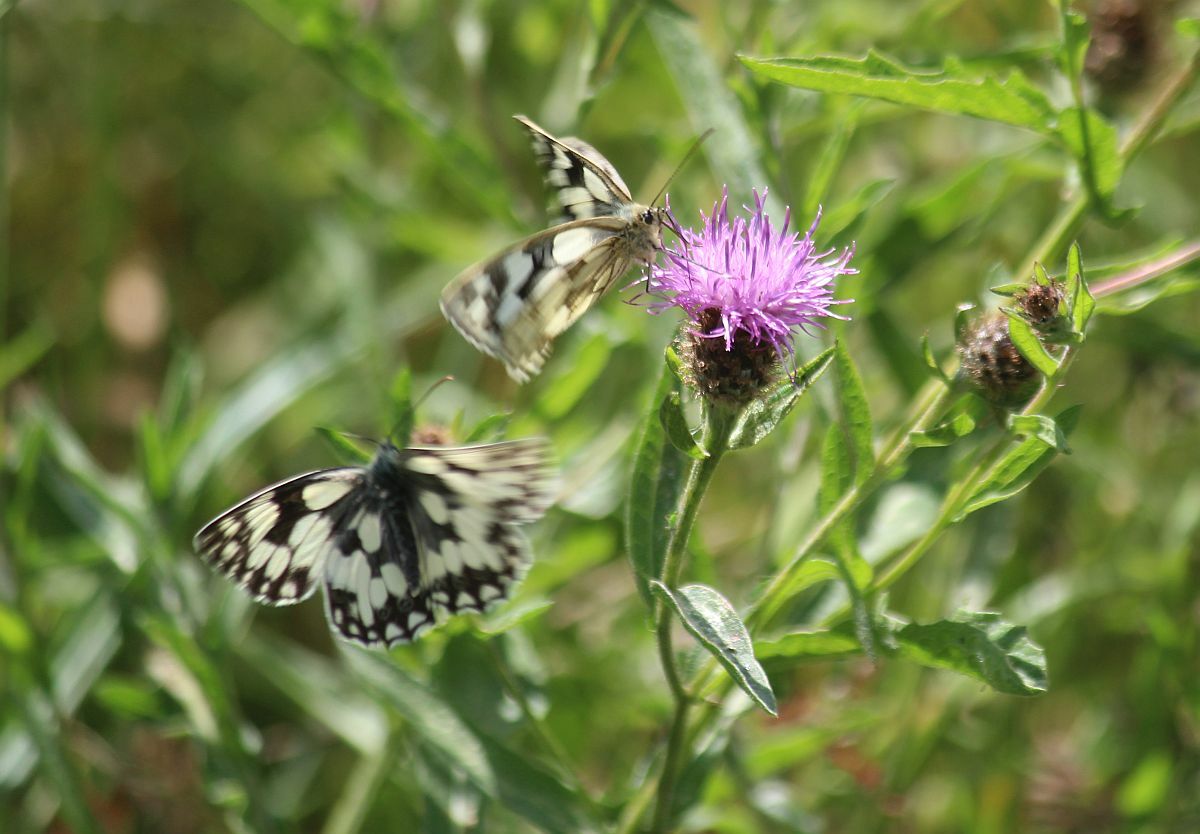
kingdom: Animalia
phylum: Arthropoda
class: Insecta
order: Lepidoptera
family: Nymphalidae
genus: Melanargia
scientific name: Melanargia galathea
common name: Marbled white
